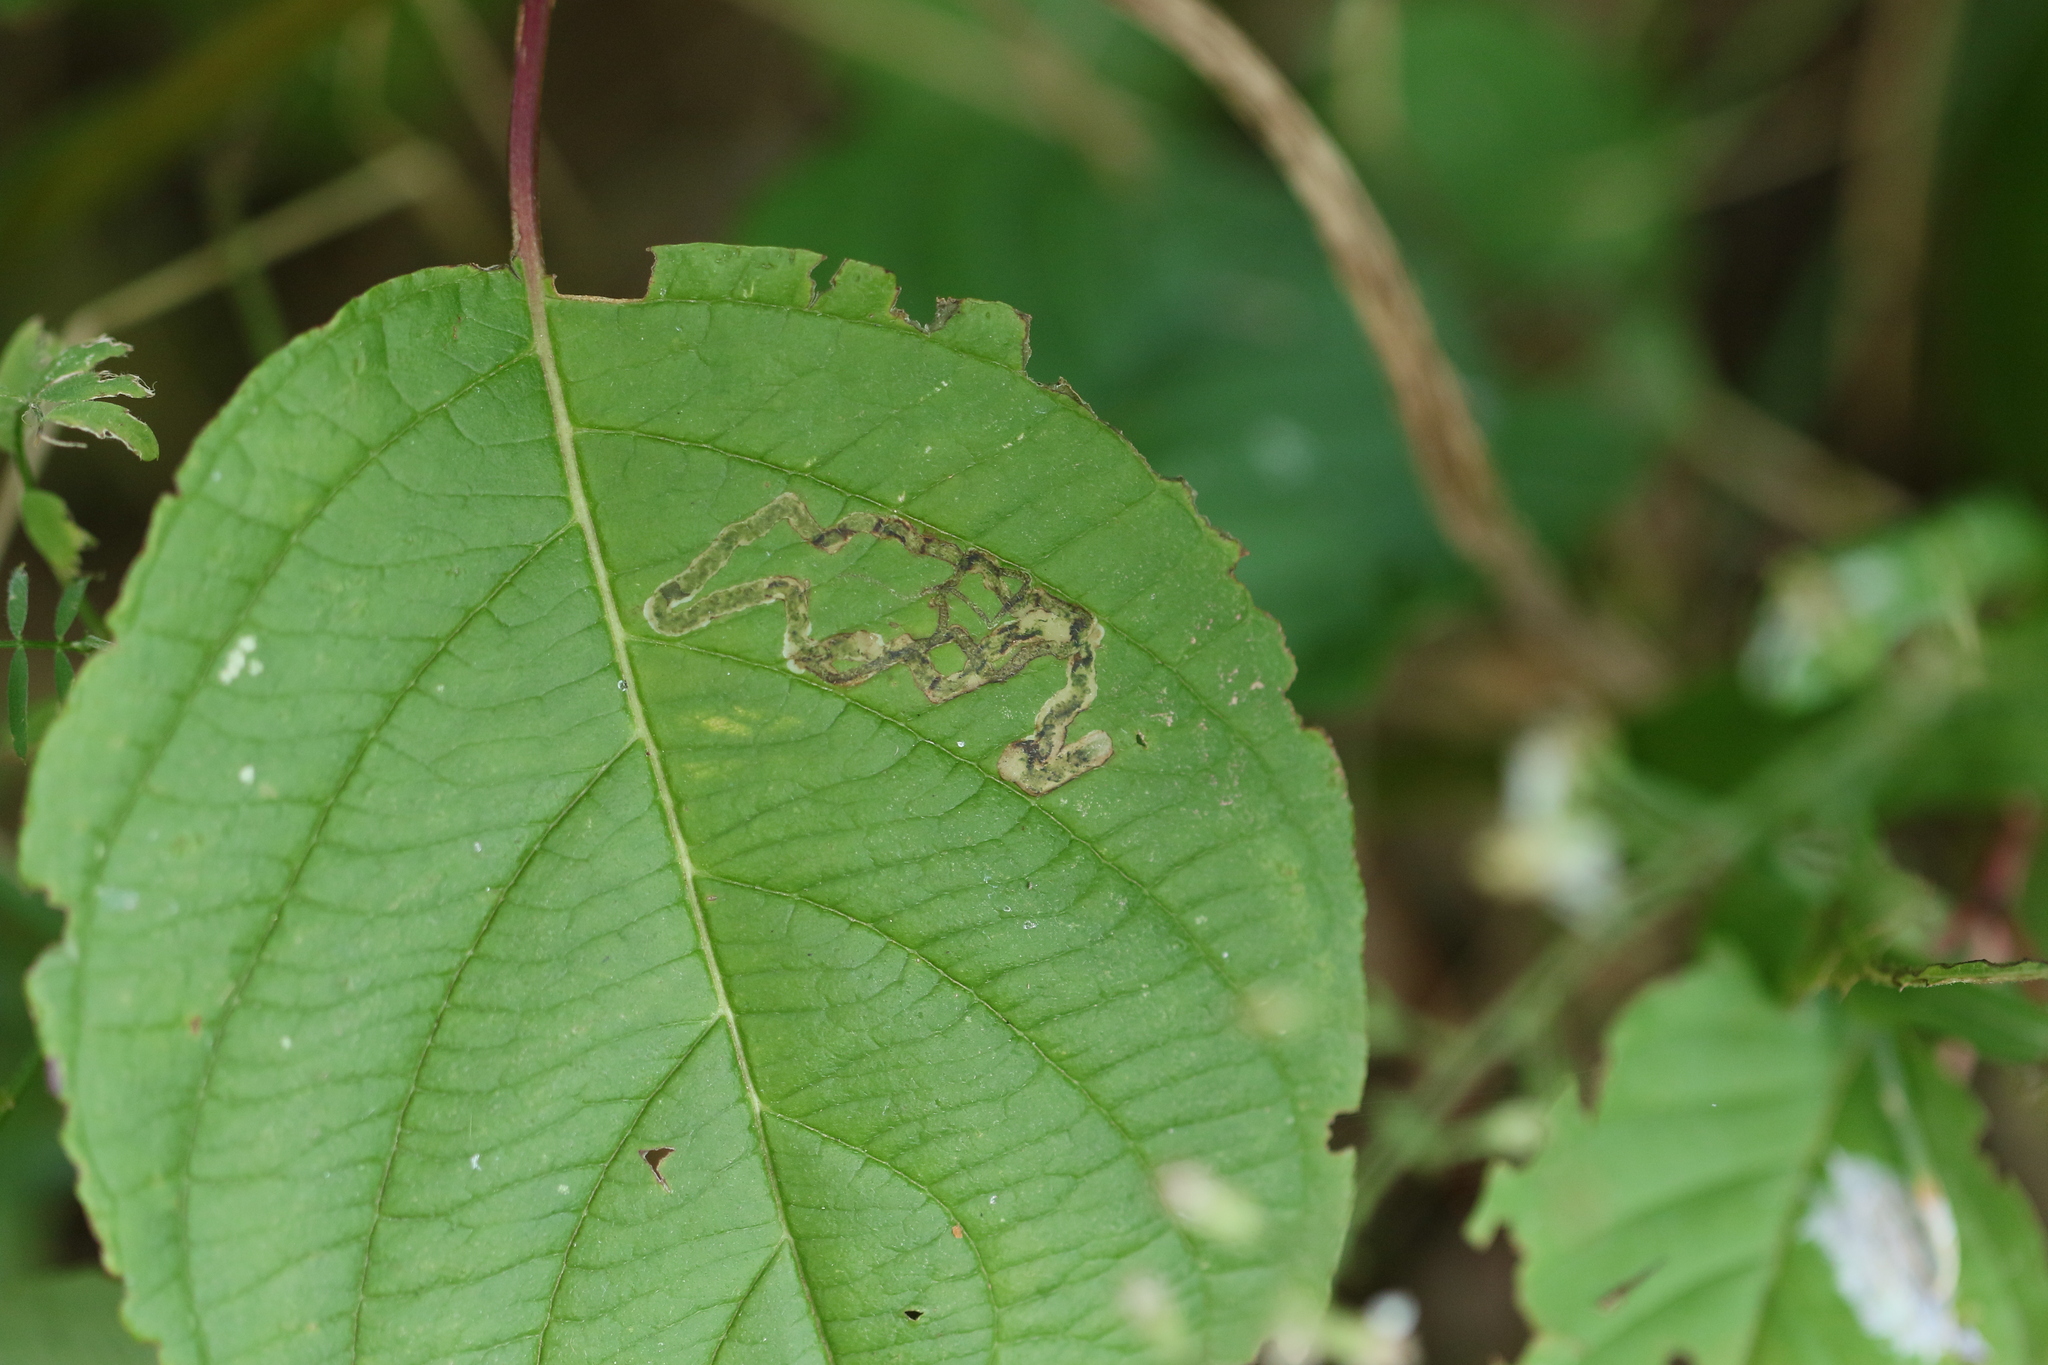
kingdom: Animalia
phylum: Arthropoda
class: Insecta
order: Diptera
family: Agromyzidae
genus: Phytomyza
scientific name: Phytomyza agromyzina
